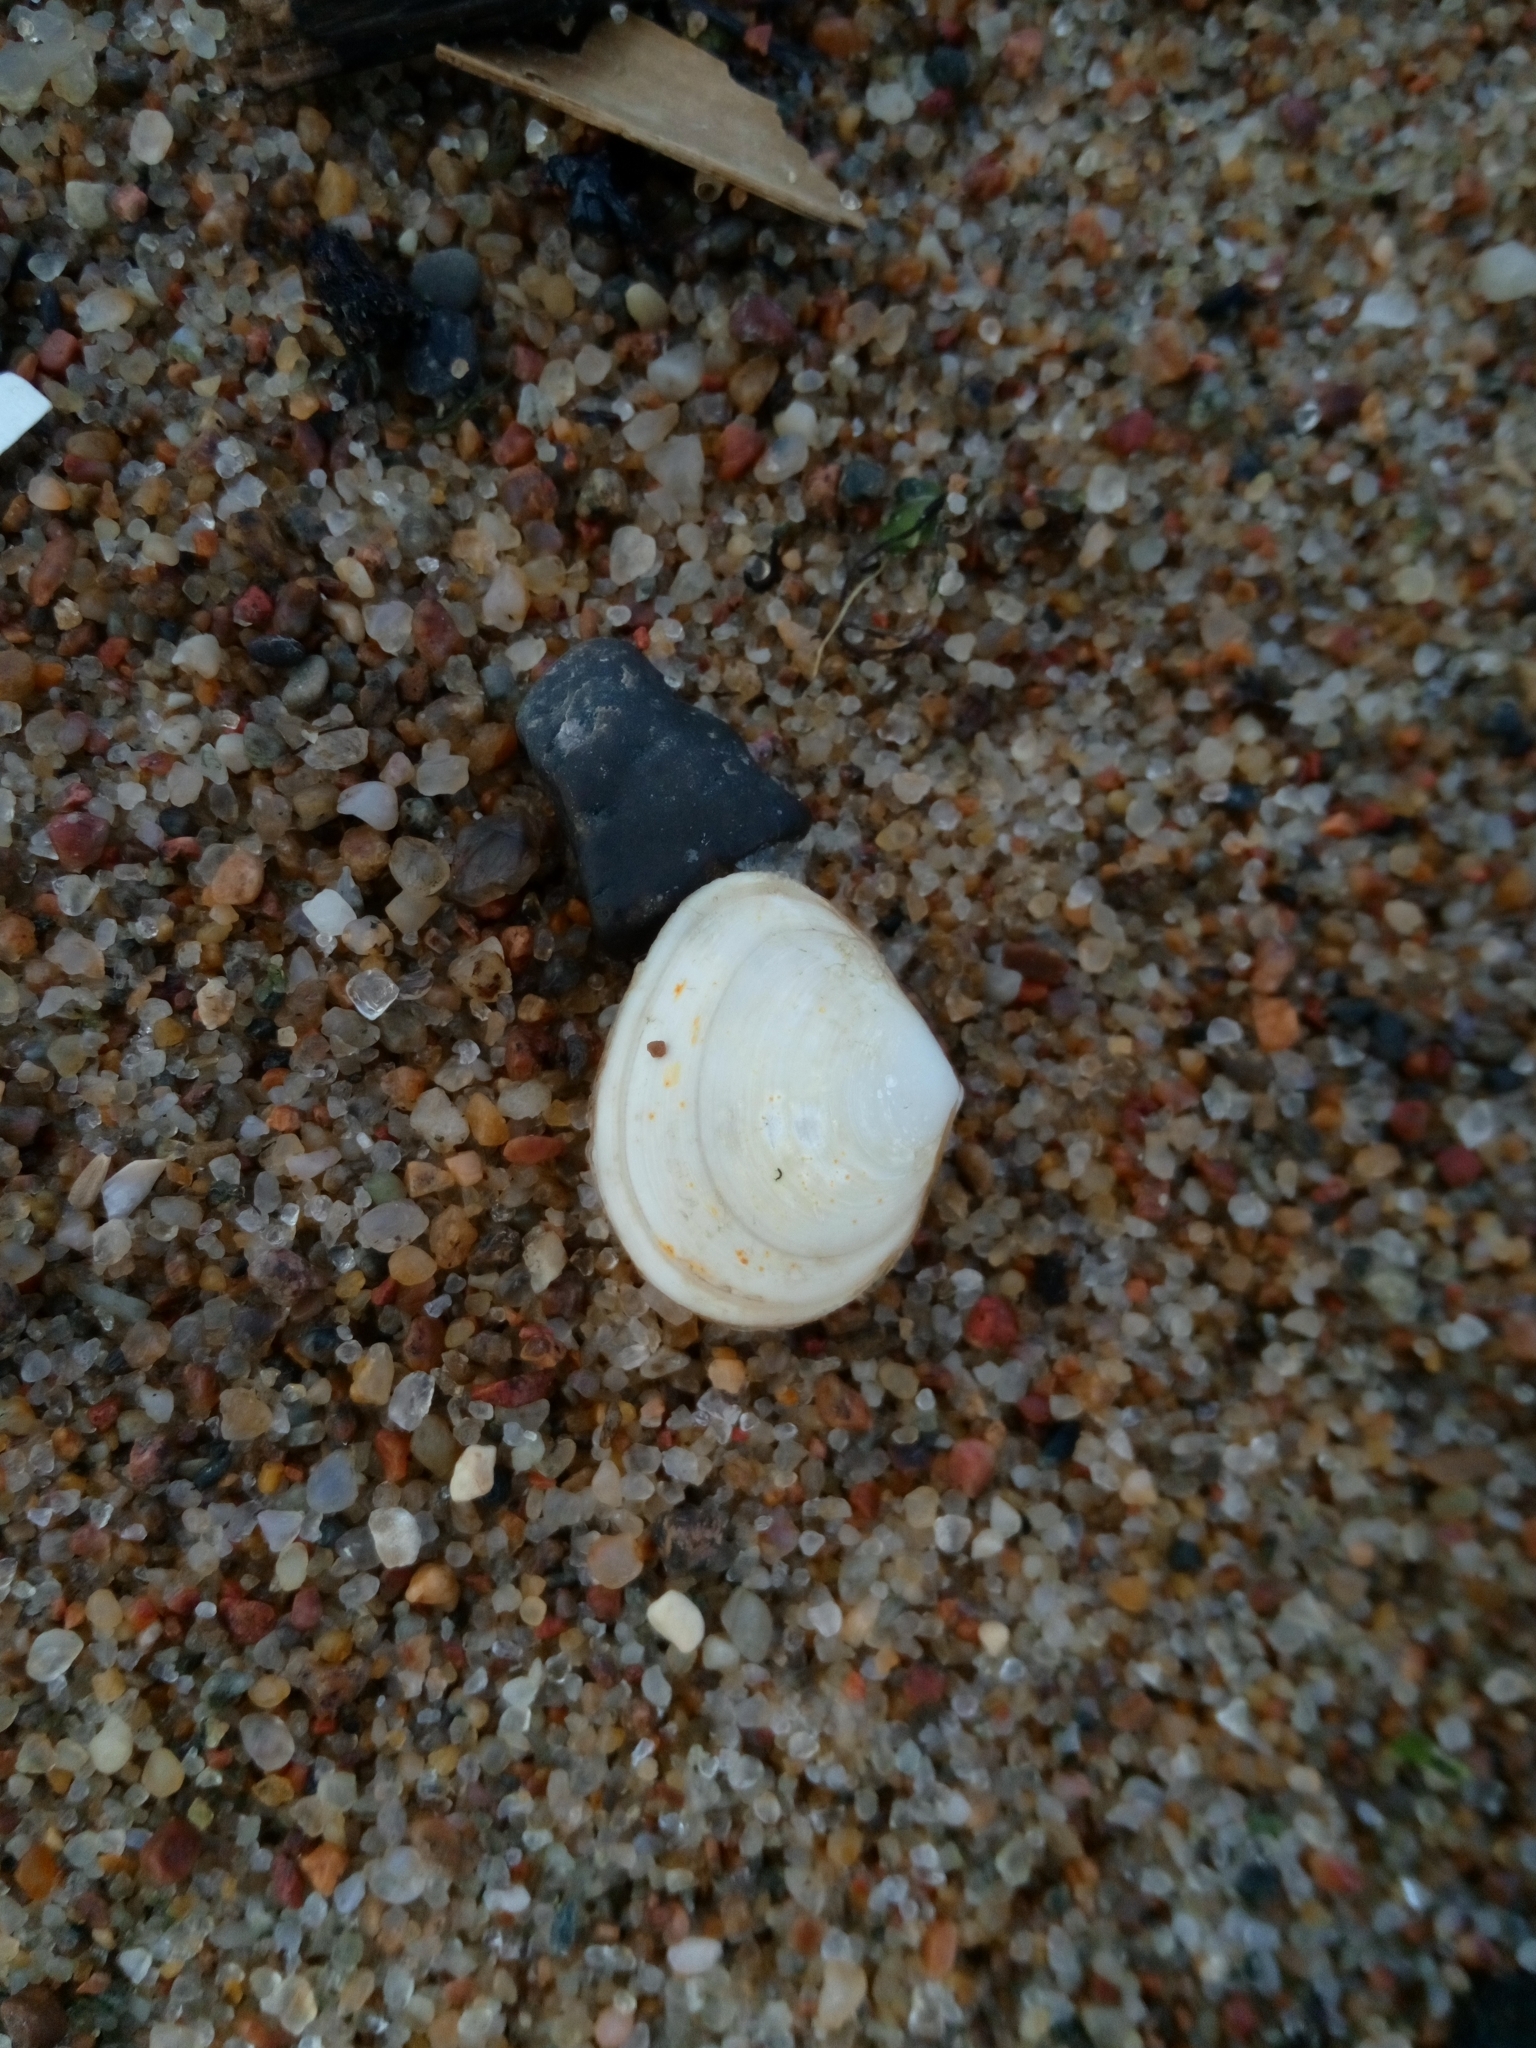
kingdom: Animalia
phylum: Mollusca
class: Bivalvia
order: Cardiida
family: Tellinidae
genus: Macoma
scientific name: Macoma balthica
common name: Baltic tellin
